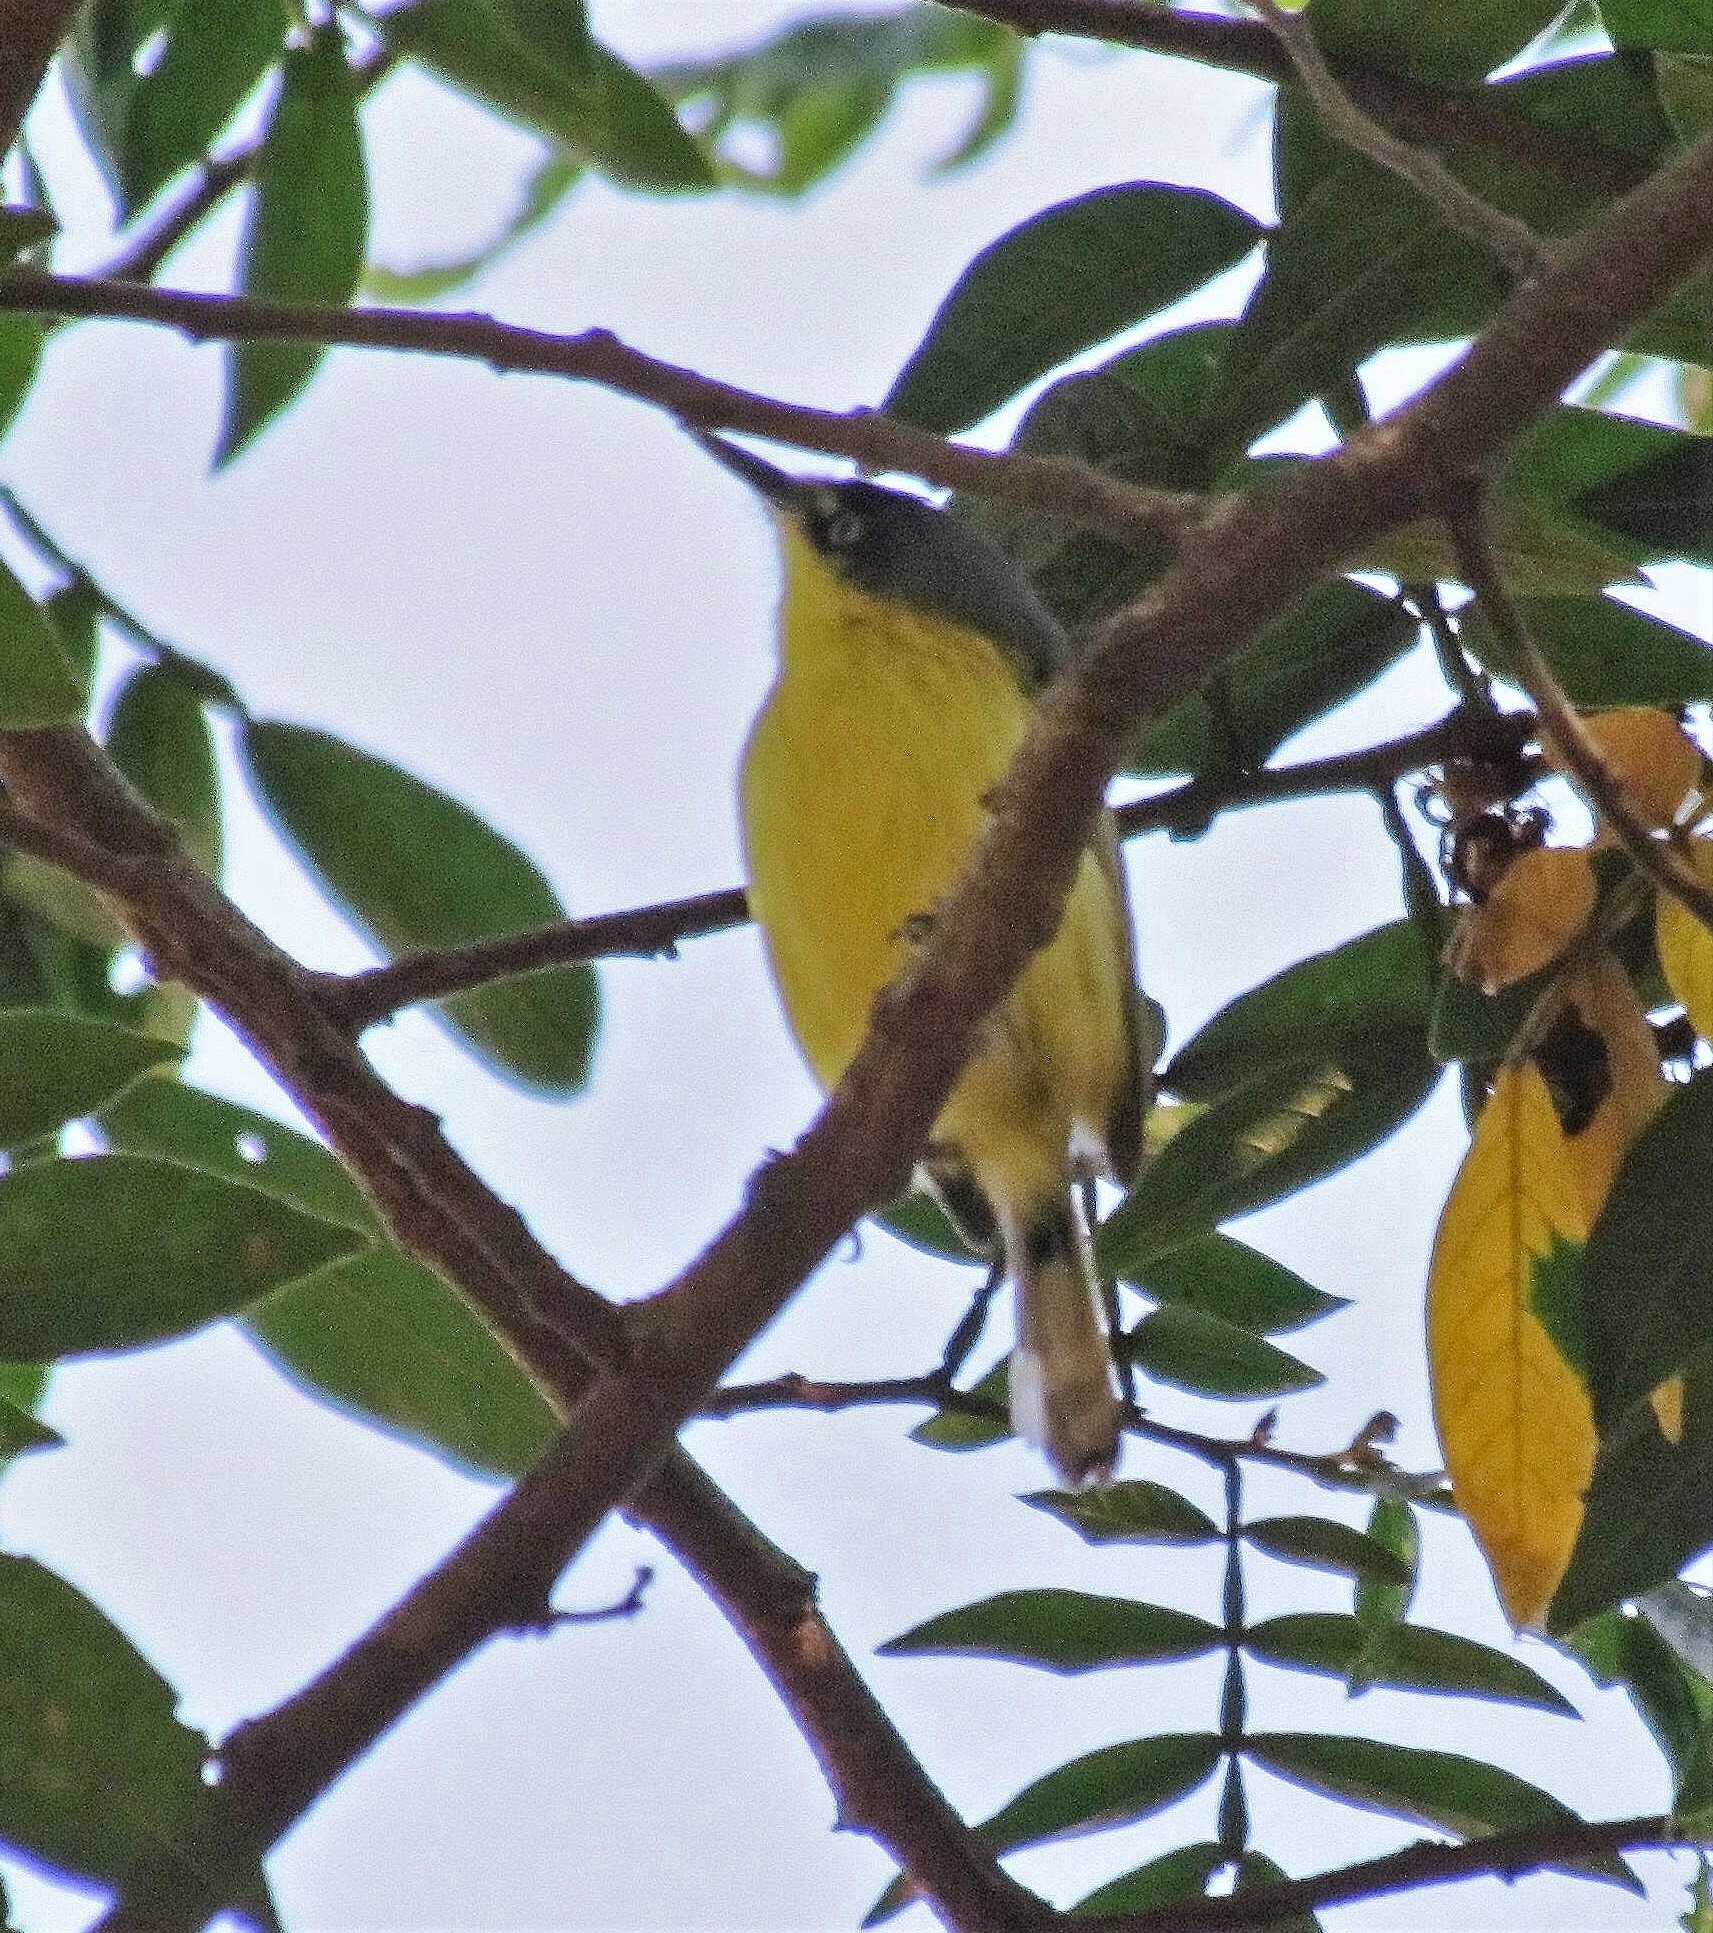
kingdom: Animalia
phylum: Chordata
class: Aves
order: Passeriformes
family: Tyrannidae
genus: Todirostrum
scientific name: Todirostrum cinereum
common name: Common tody-flycatcher
